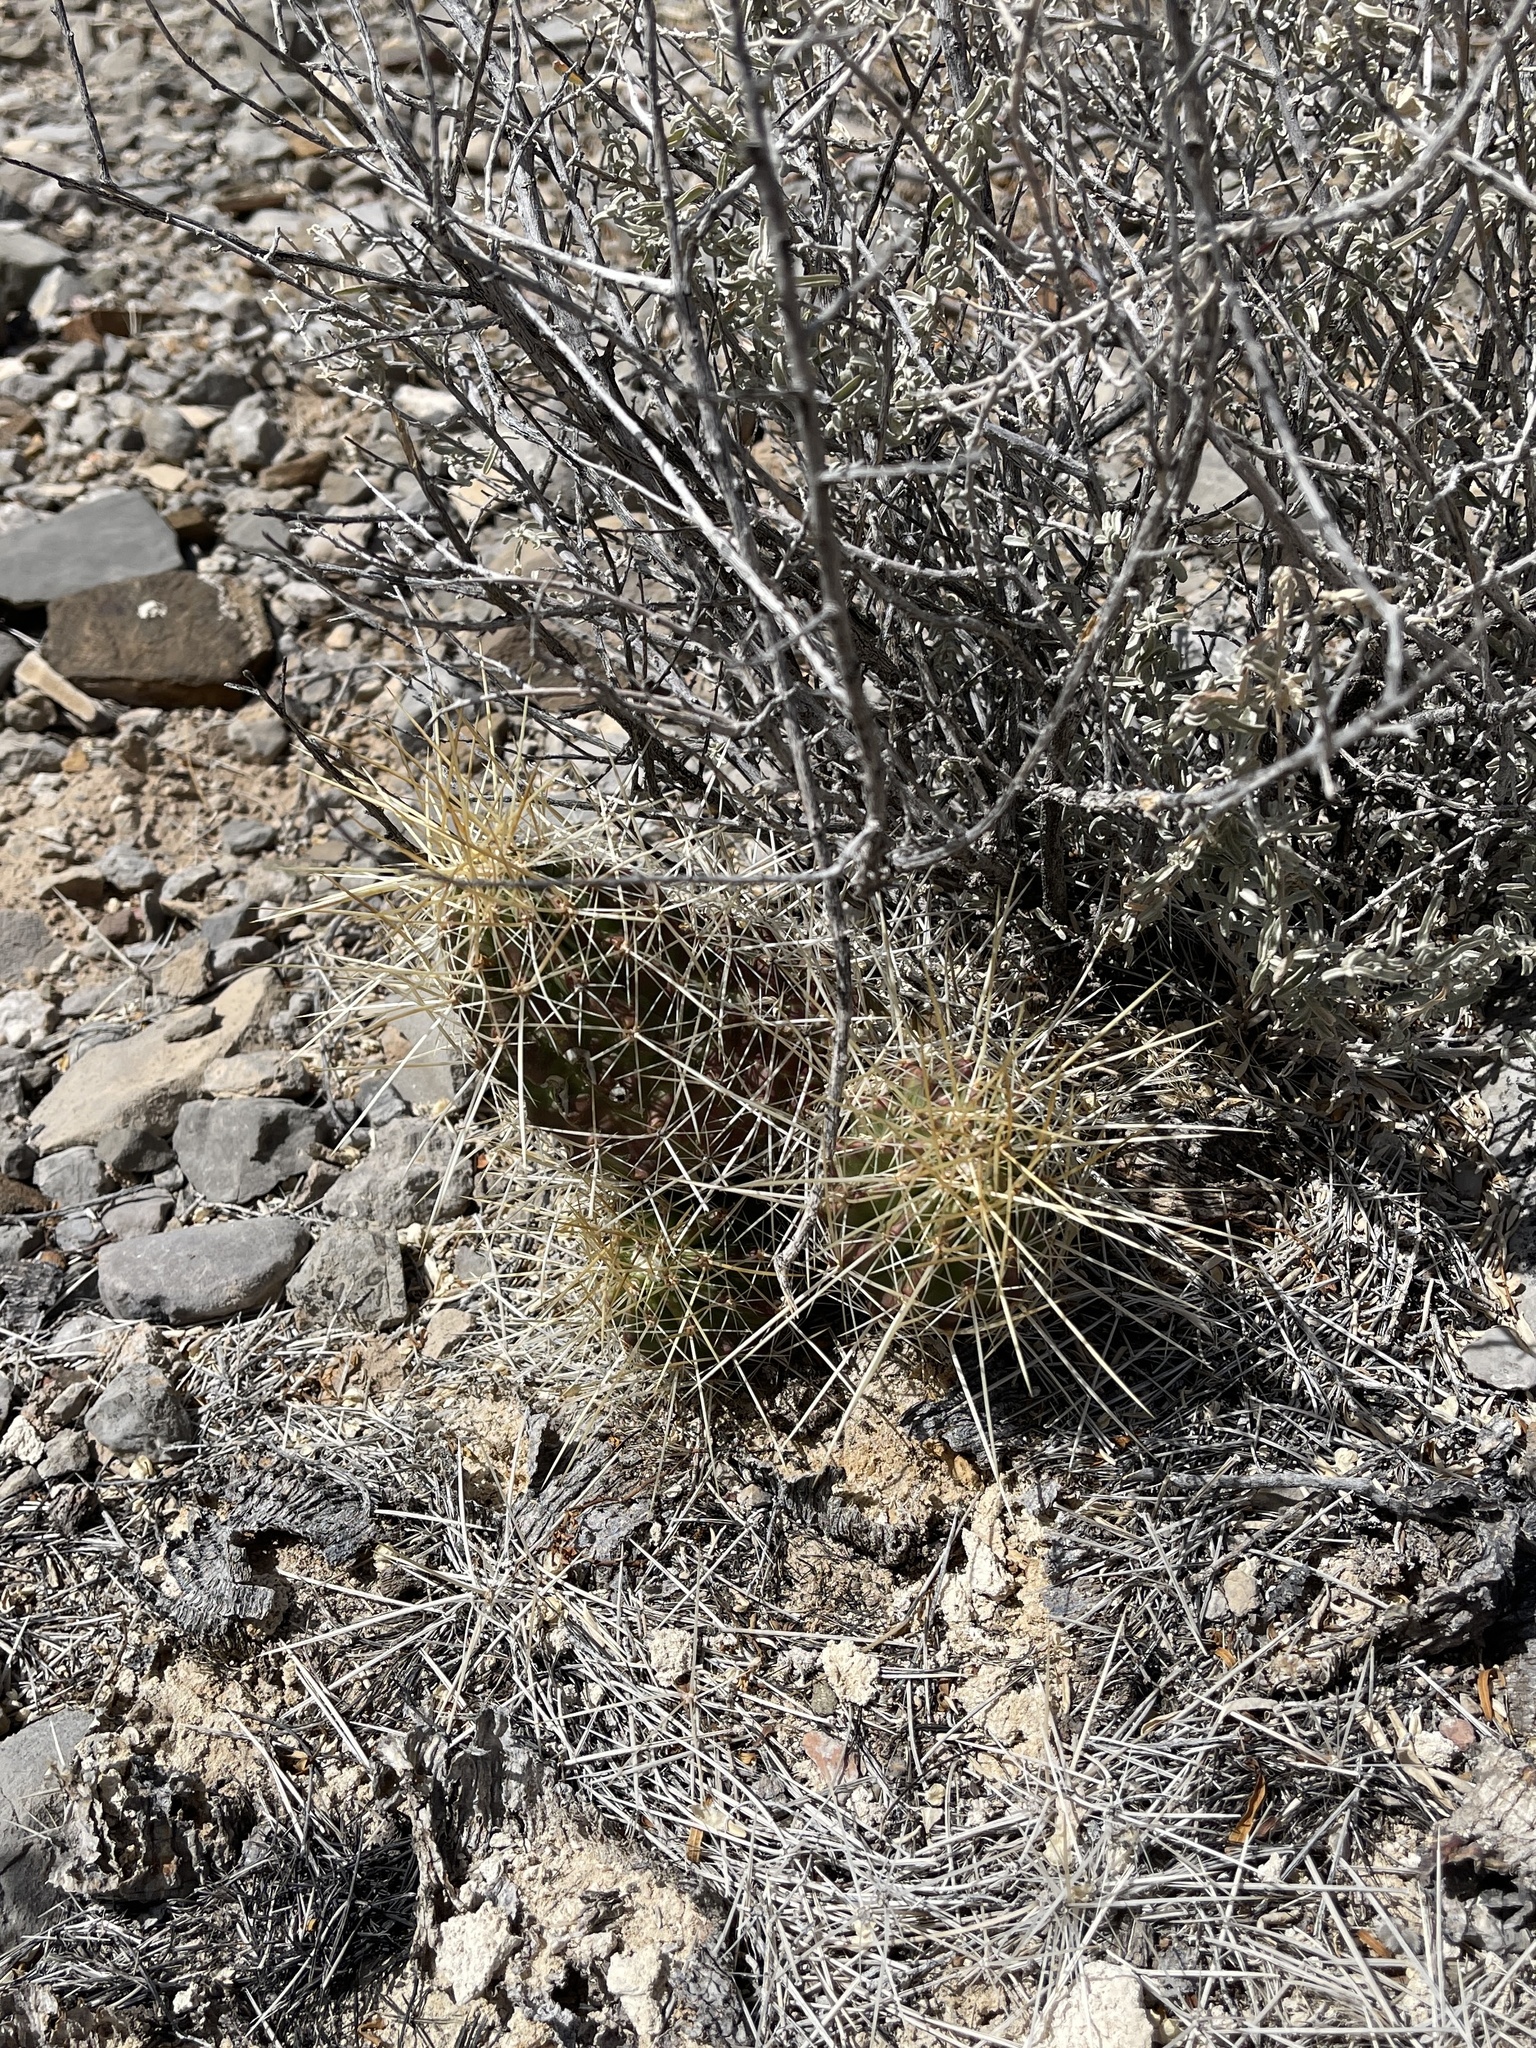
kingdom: Plantae
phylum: Tracheophyta
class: Magnoliopsida
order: Caryophyllales
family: Cactaceae
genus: Echinocereus
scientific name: Echinocereus stramineus
